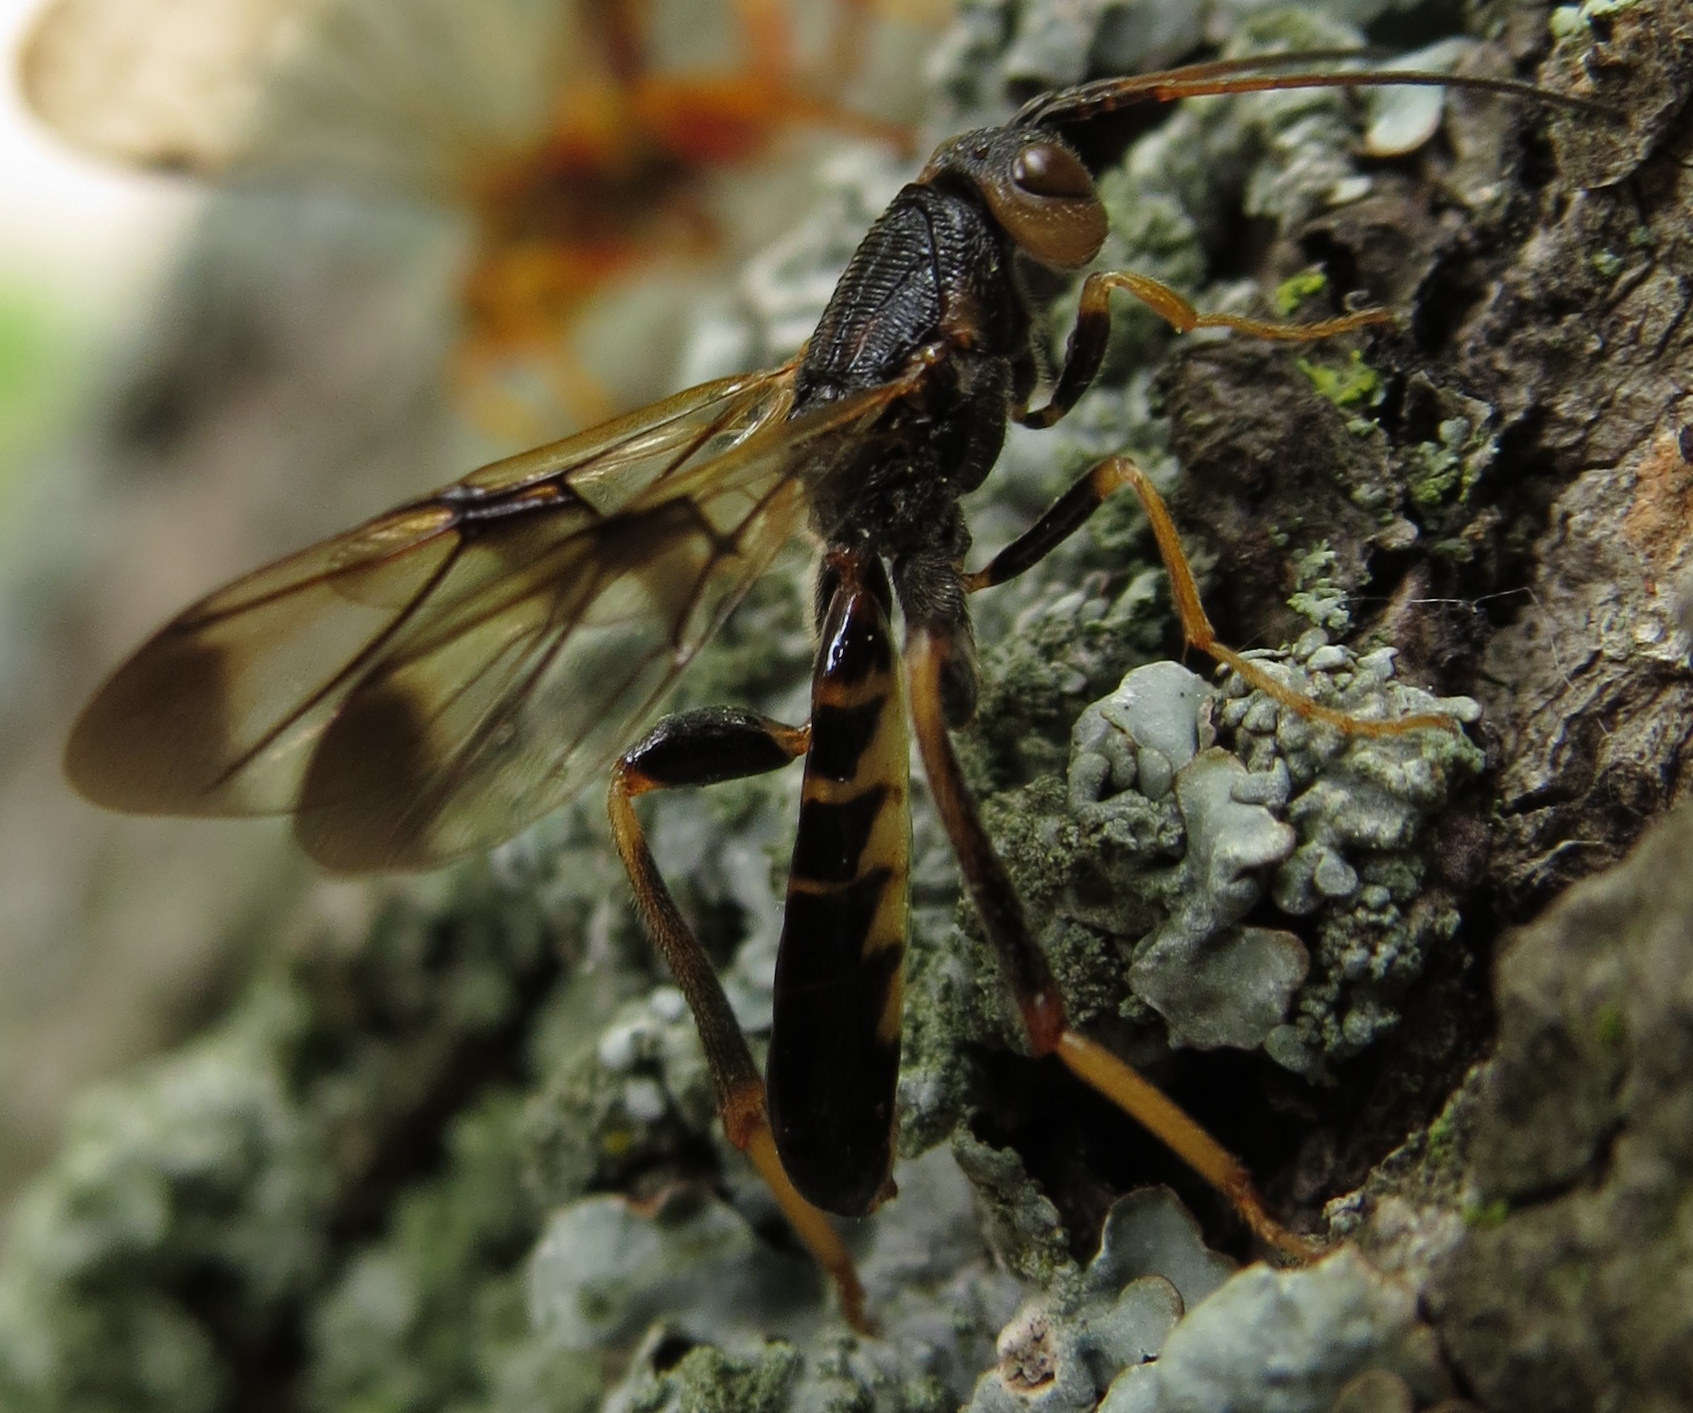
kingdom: Animalia
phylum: Arthropoda
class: Insecta
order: Hymenoptera
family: Ibaliidae
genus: Ibalia
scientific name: Ibalia anceps
